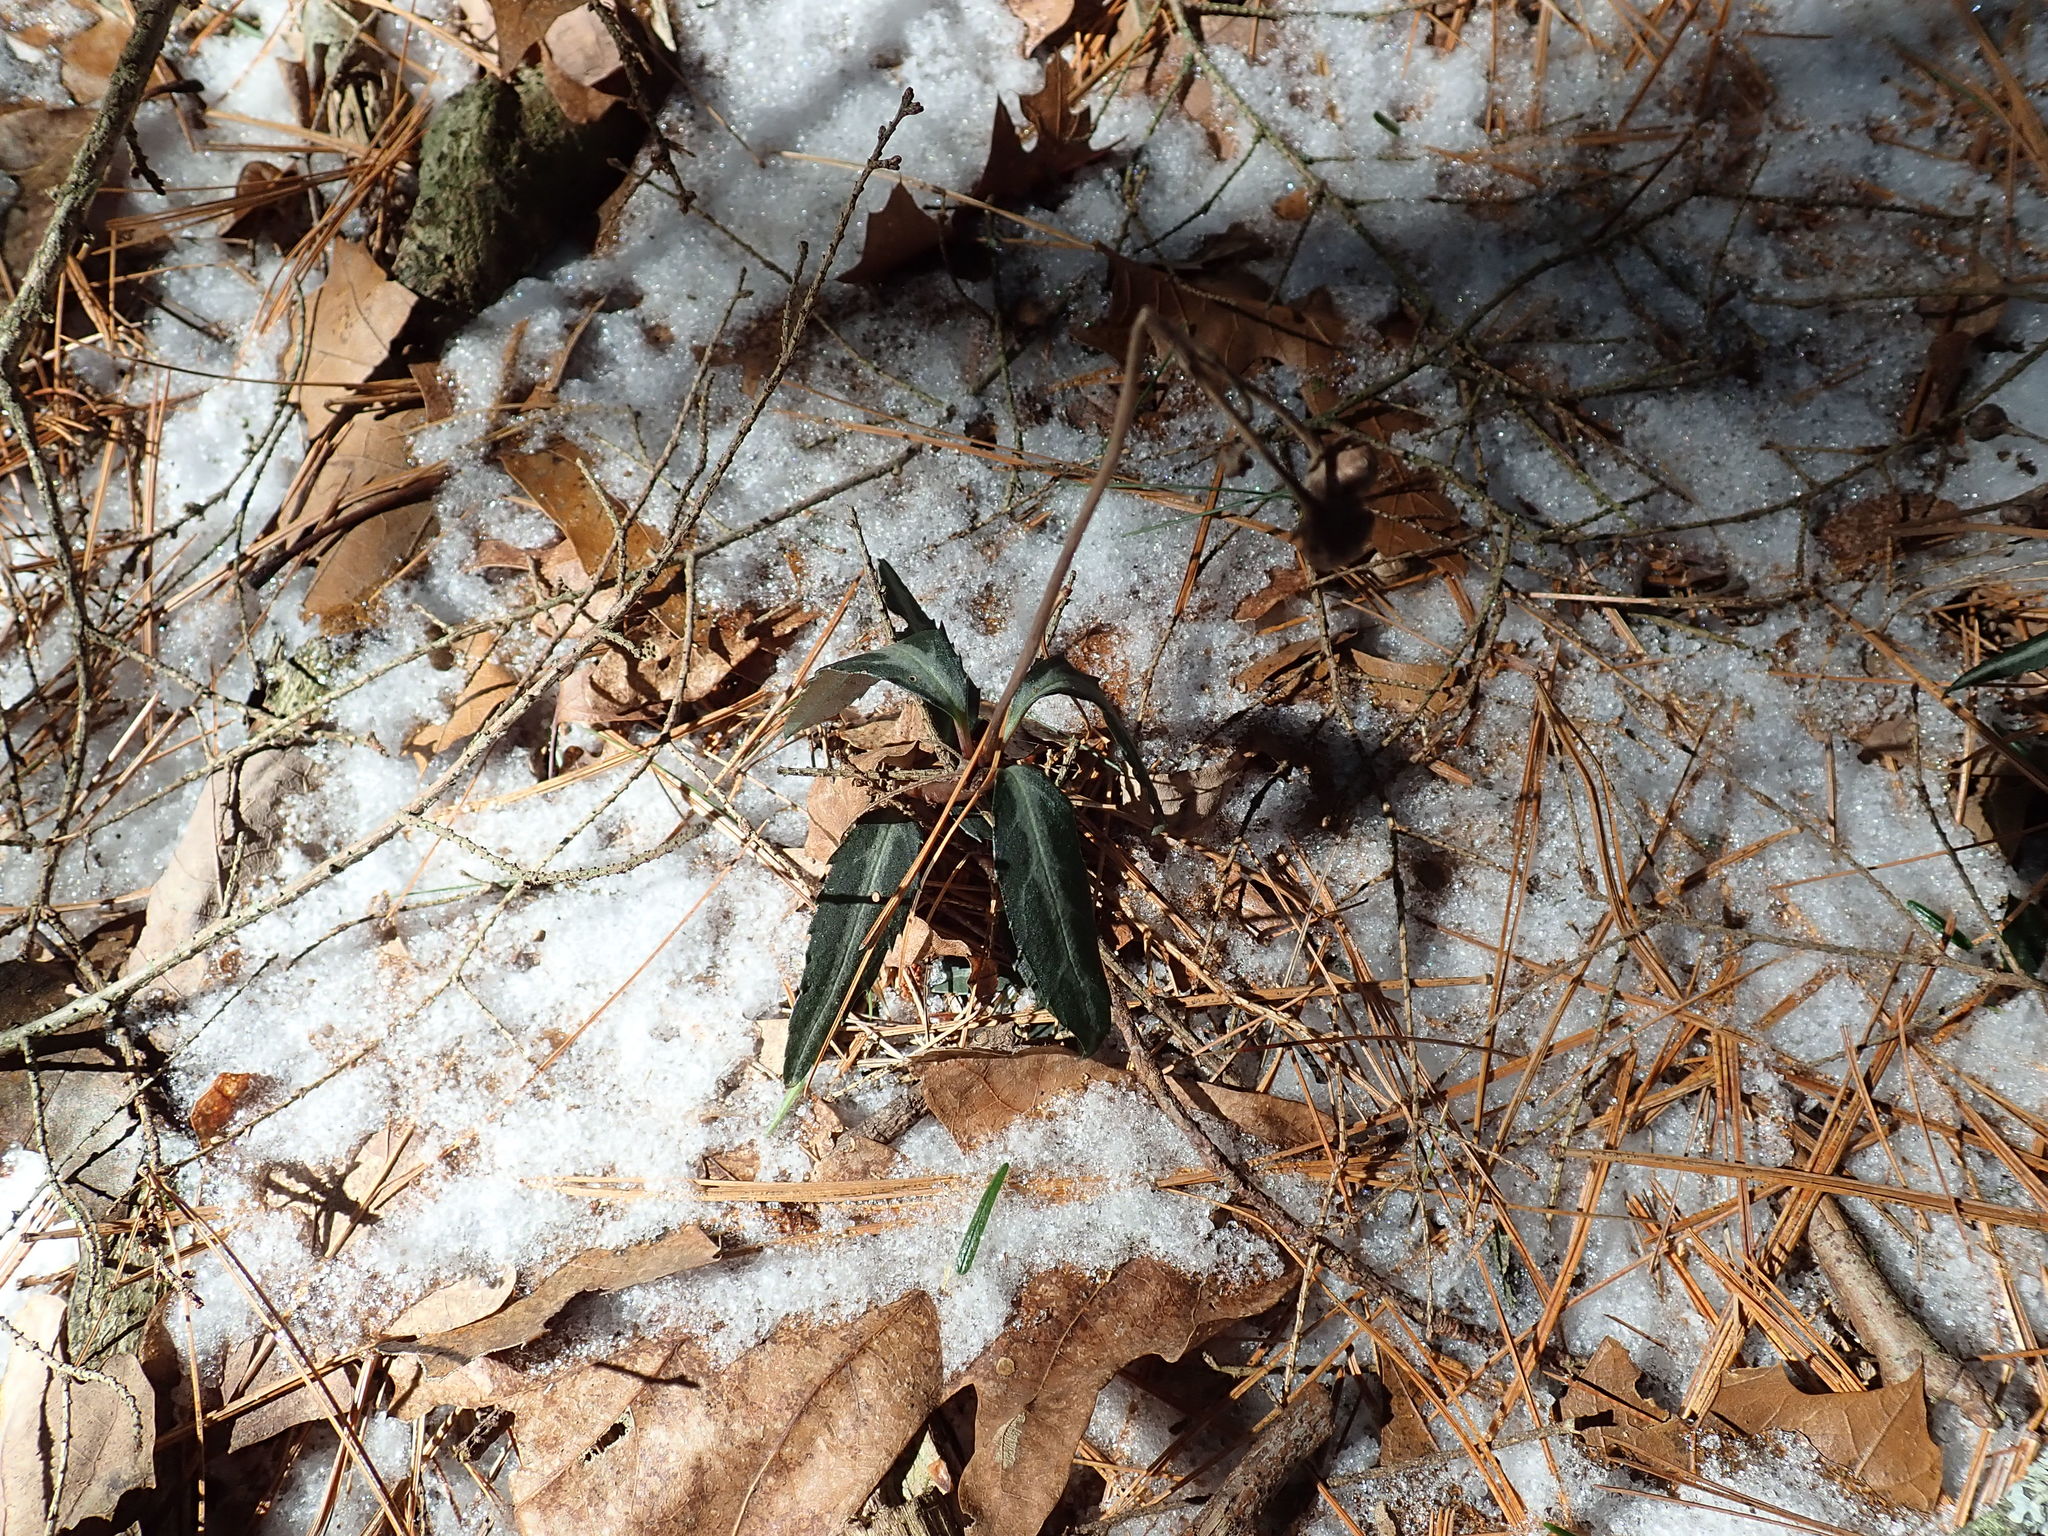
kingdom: Plantae
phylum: Tracheophyta
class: Magnoliopsida
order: Ericales
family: Ericaceae
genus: Chimaphila
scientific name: Chimaphila maculata
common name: Spotted pipsissewa
